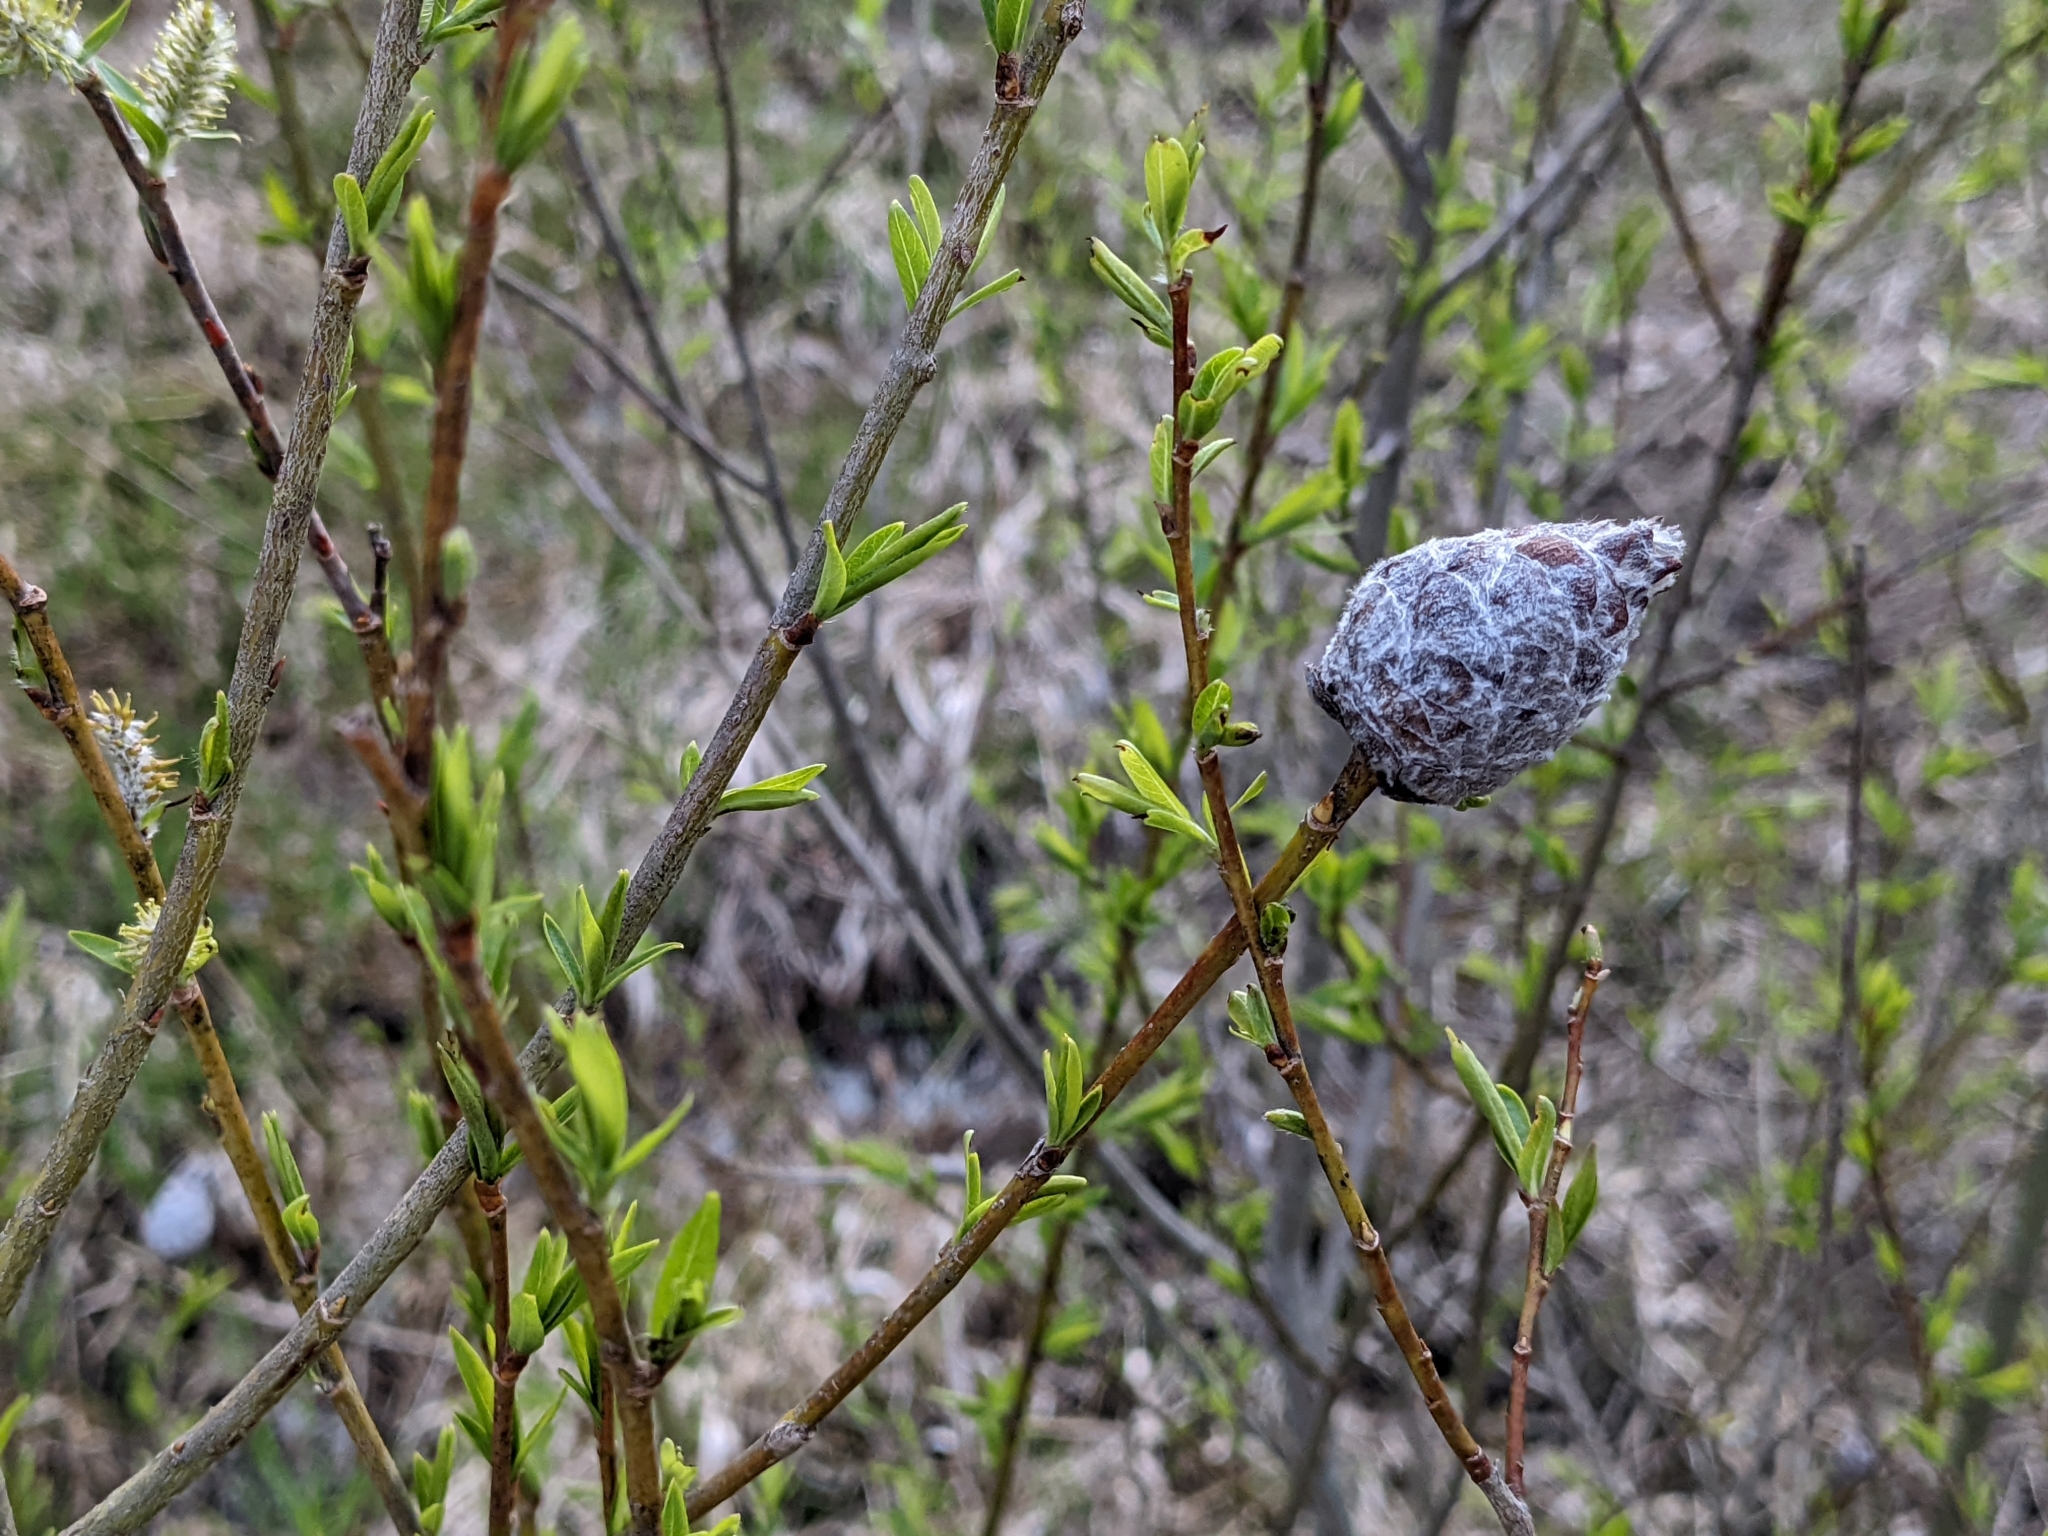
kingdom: Animalia
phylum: Arthropoda
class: Insecta
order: Diptera
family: Cecidomyiidae
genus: Rabdophaga
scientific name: Rabdophaga strobiloides
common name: Willow pinecone gall midge
